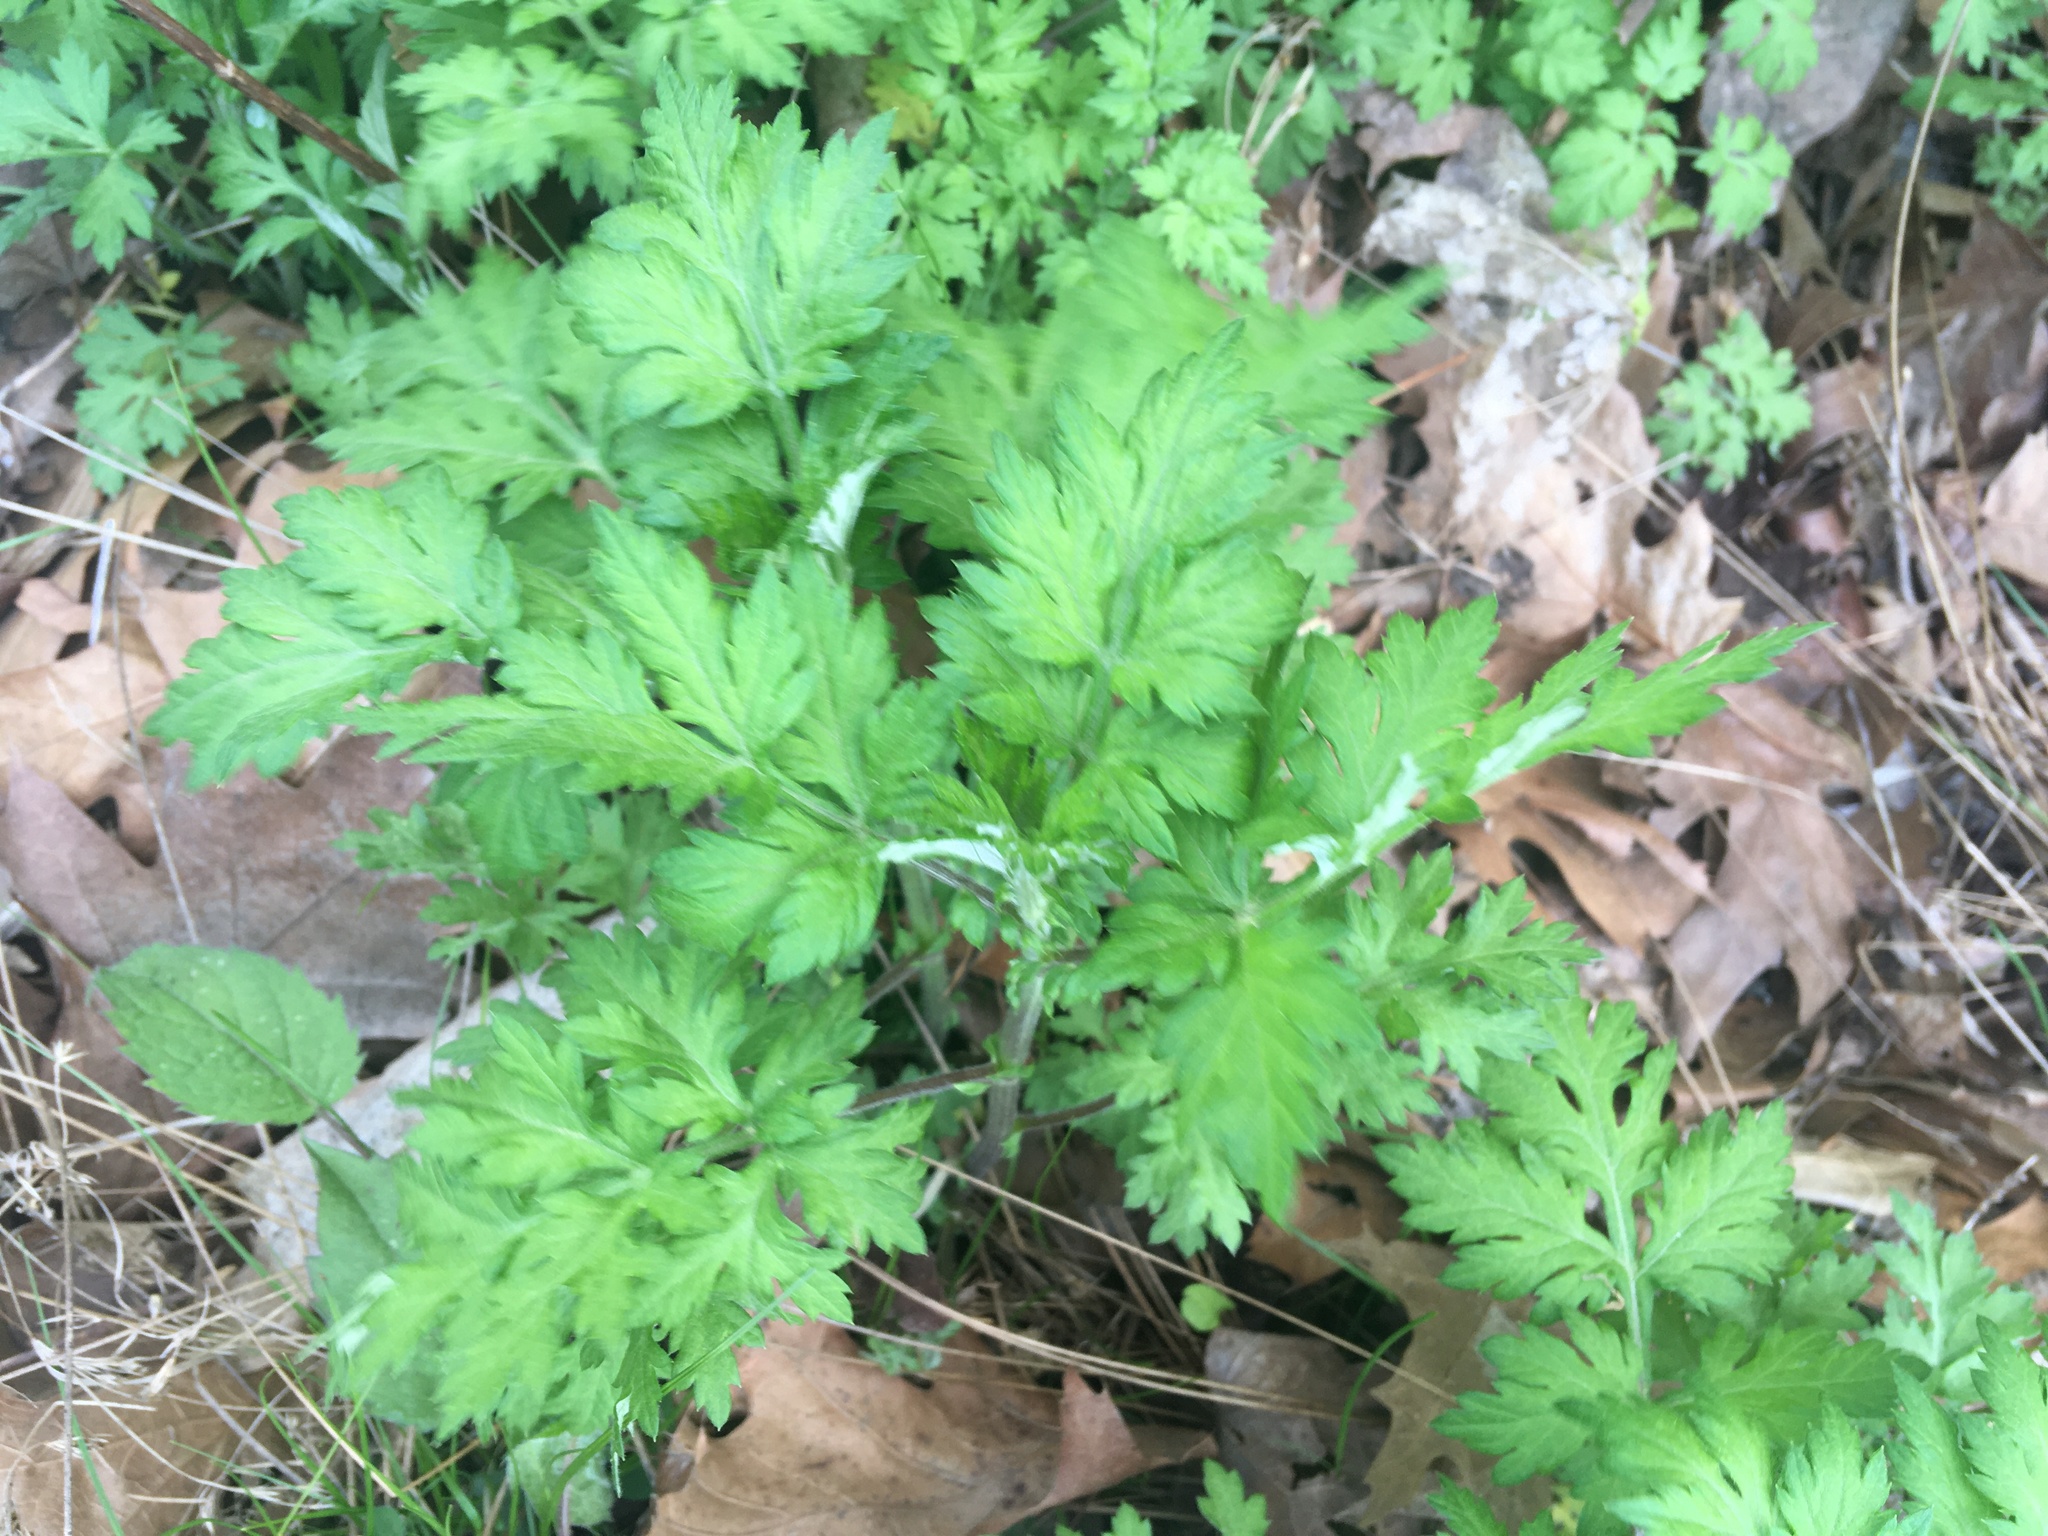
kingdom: Plantae
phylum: Tracheophyta
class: Magnoliopsida
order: Asterales
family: Asteraceae
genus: Artemisia
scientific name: Artemisia vulgaris
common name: Mugwort
